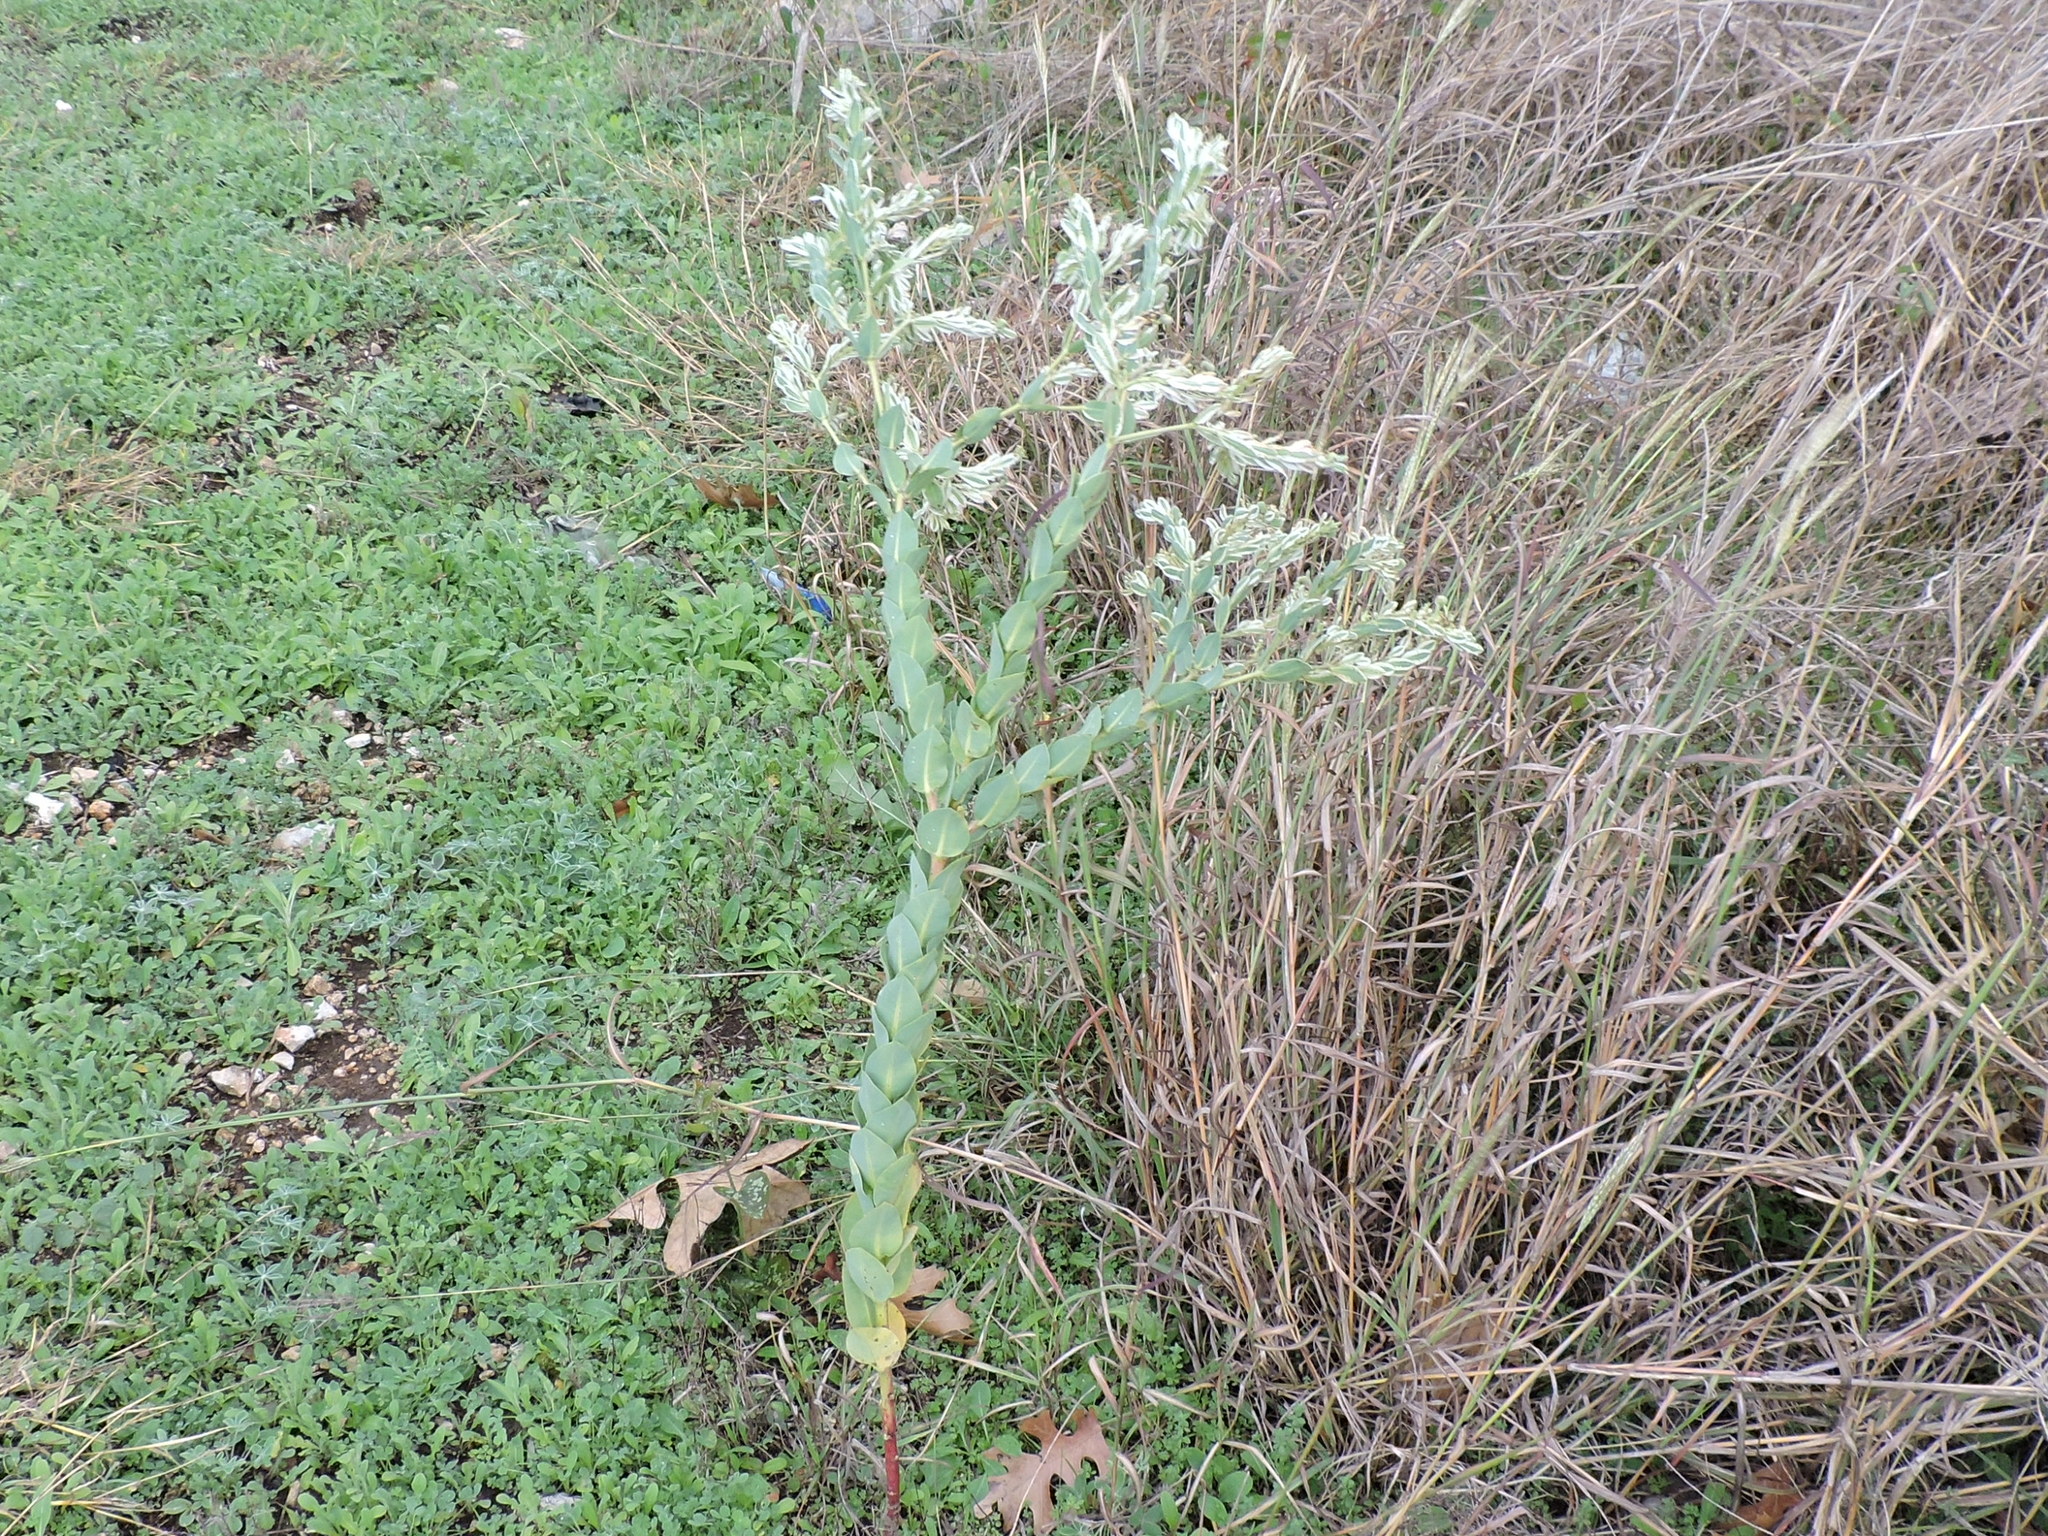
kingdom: Plantae
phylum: Tracheophyta
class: Magnoliopsida
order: Malpighiales
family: Euphorbiaceae
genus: Euphorbia
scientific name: Euphorbia marginata
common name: Ghostweed
